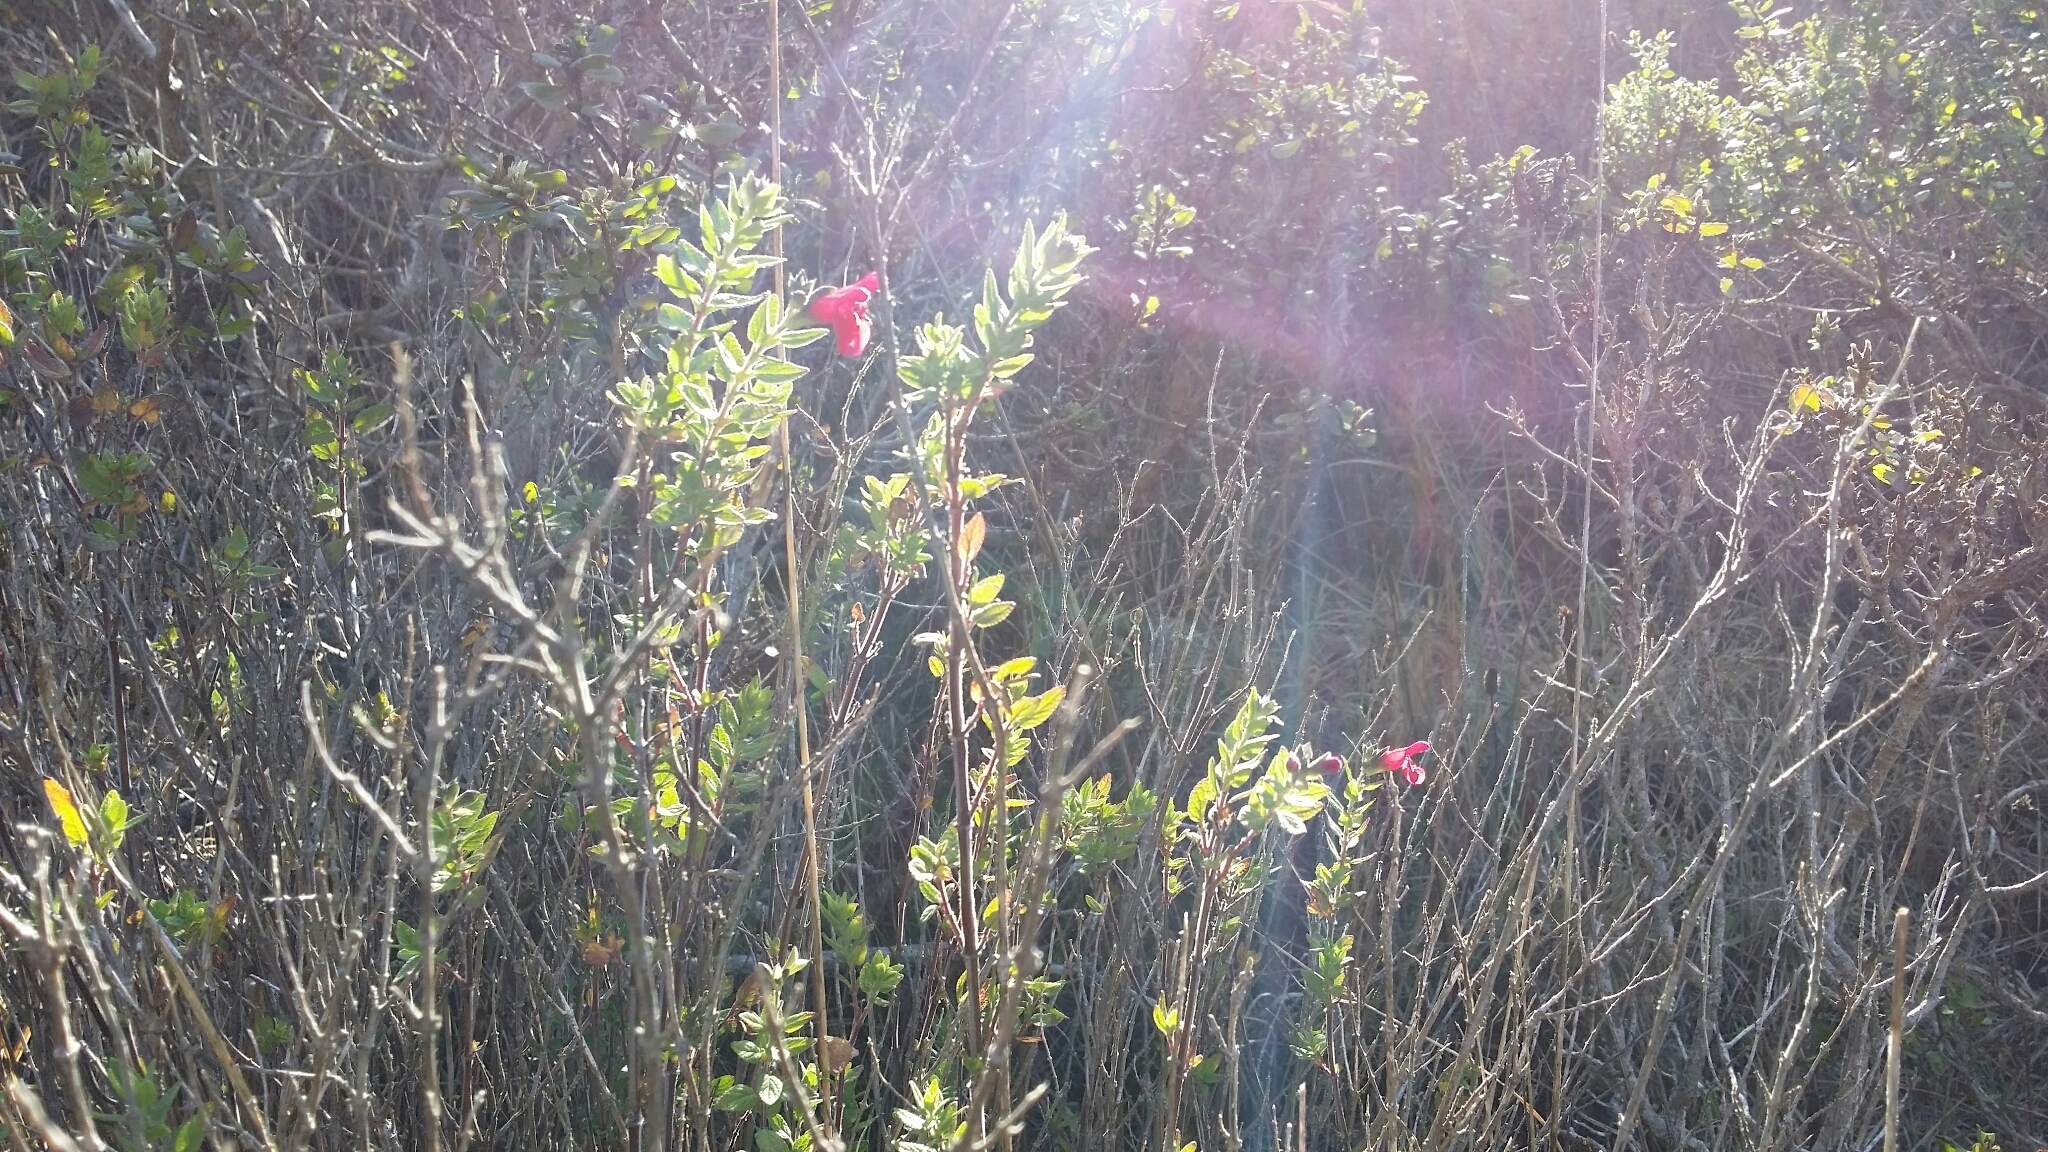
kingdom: Plantae
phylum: Tracheophyta
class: Magnoliopsida
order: Lamiales
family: Lamiaceae
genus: Salvia
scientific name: Salvia microphylla
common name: Baby sage
